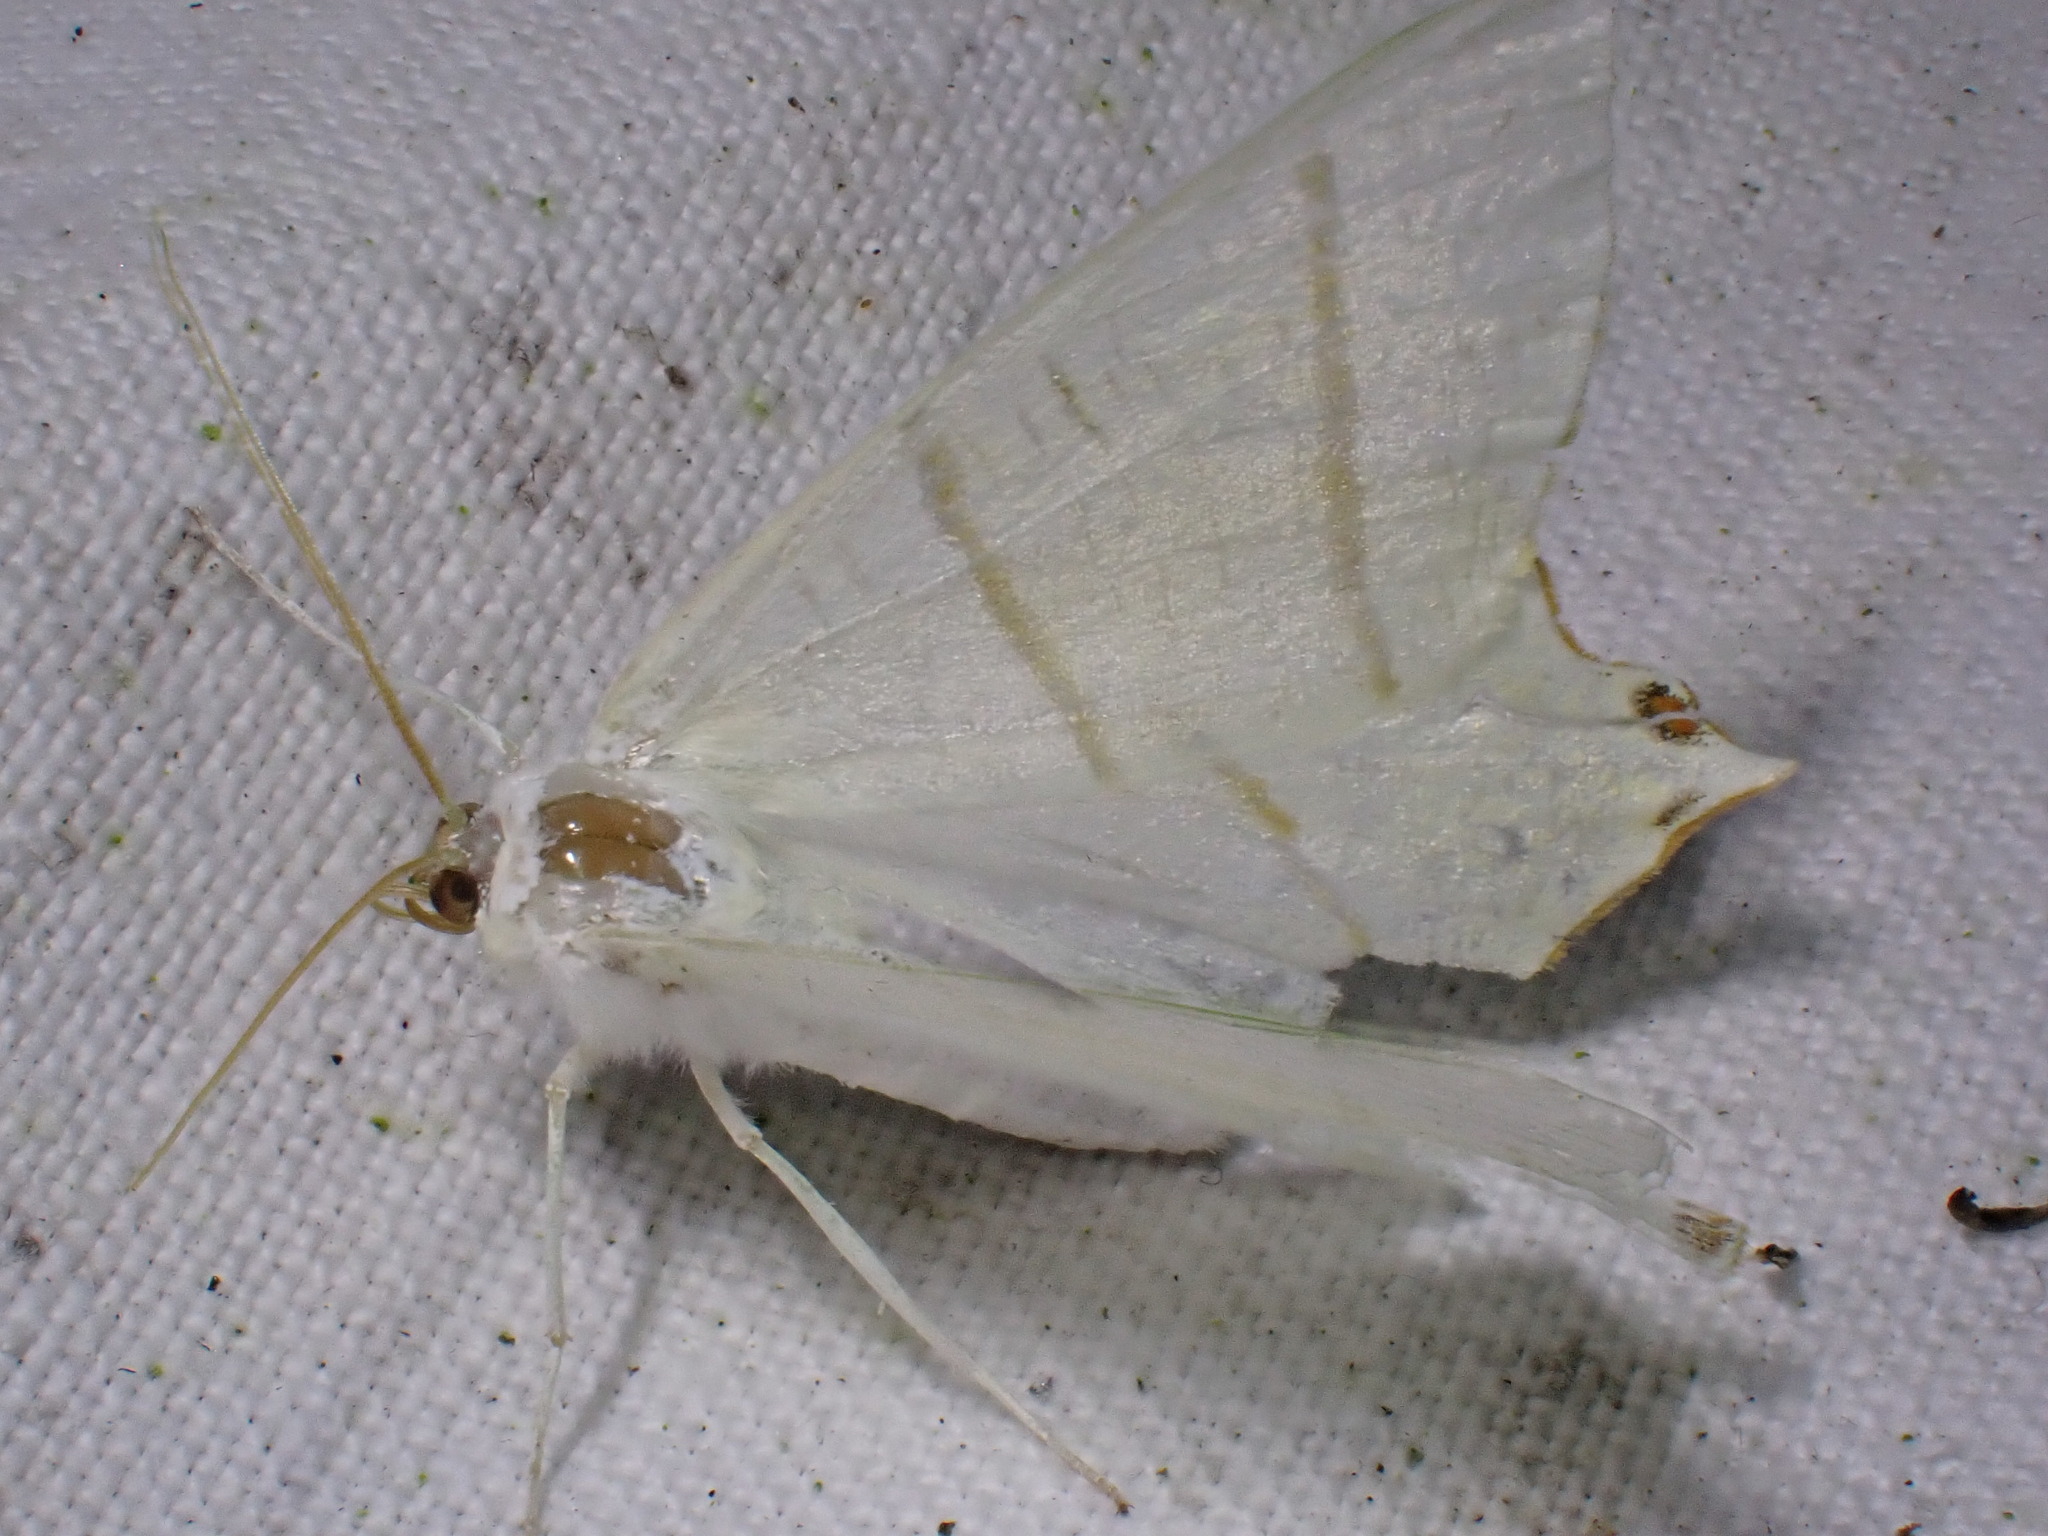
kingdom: Animalia
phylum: Arthropoda
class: Insecta
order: Lepidoptera
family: Geometridae
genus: Ourapteryx
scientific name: Ourapteryx sambucaria
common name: Swallow-tailed moth
